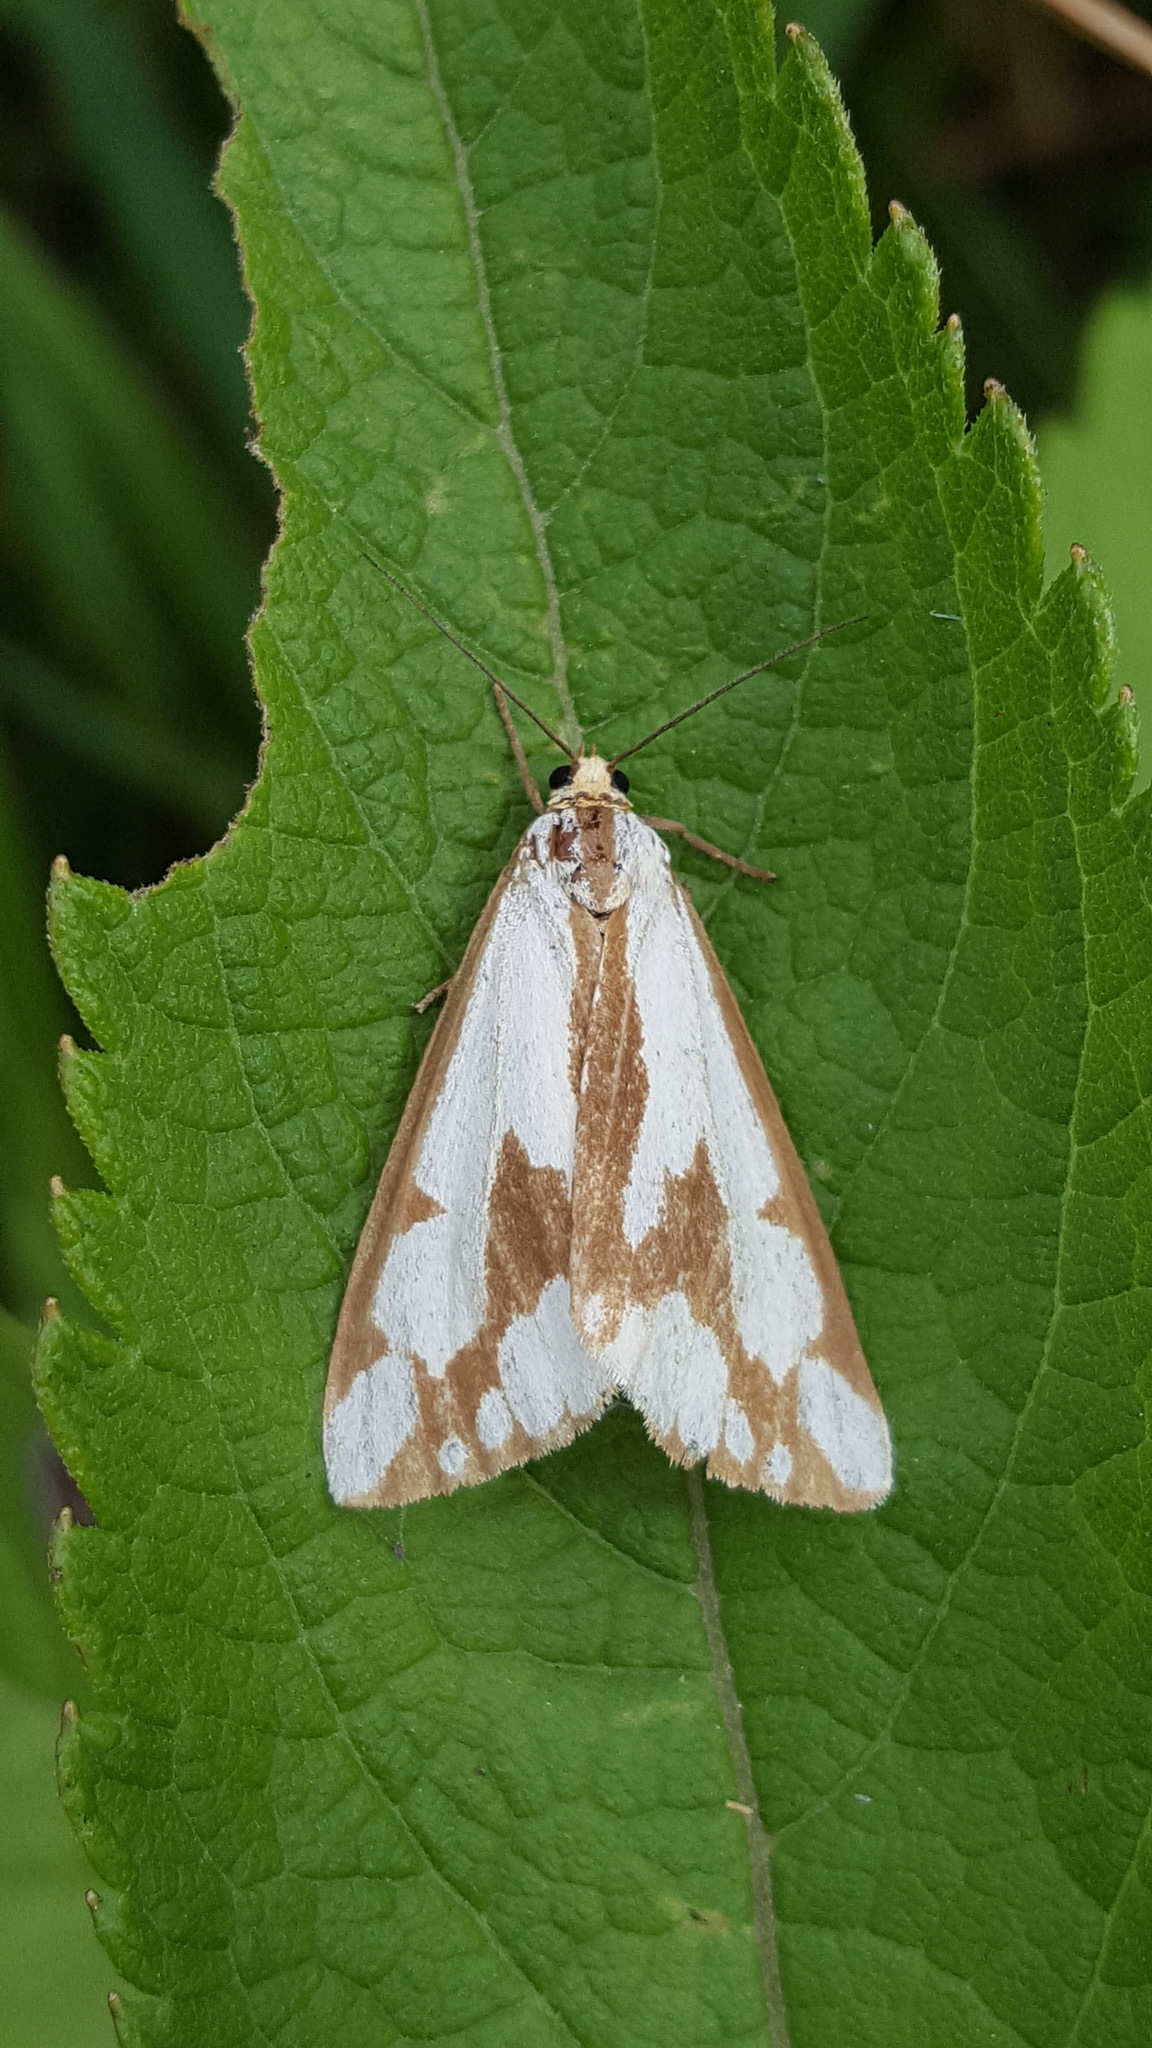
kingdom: Animalia
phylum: Arthropoda
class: Insecta
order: Lepidoptera
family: Erebidae
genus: Haploa
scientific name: Haploa confusa
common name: Confused haploa moth
